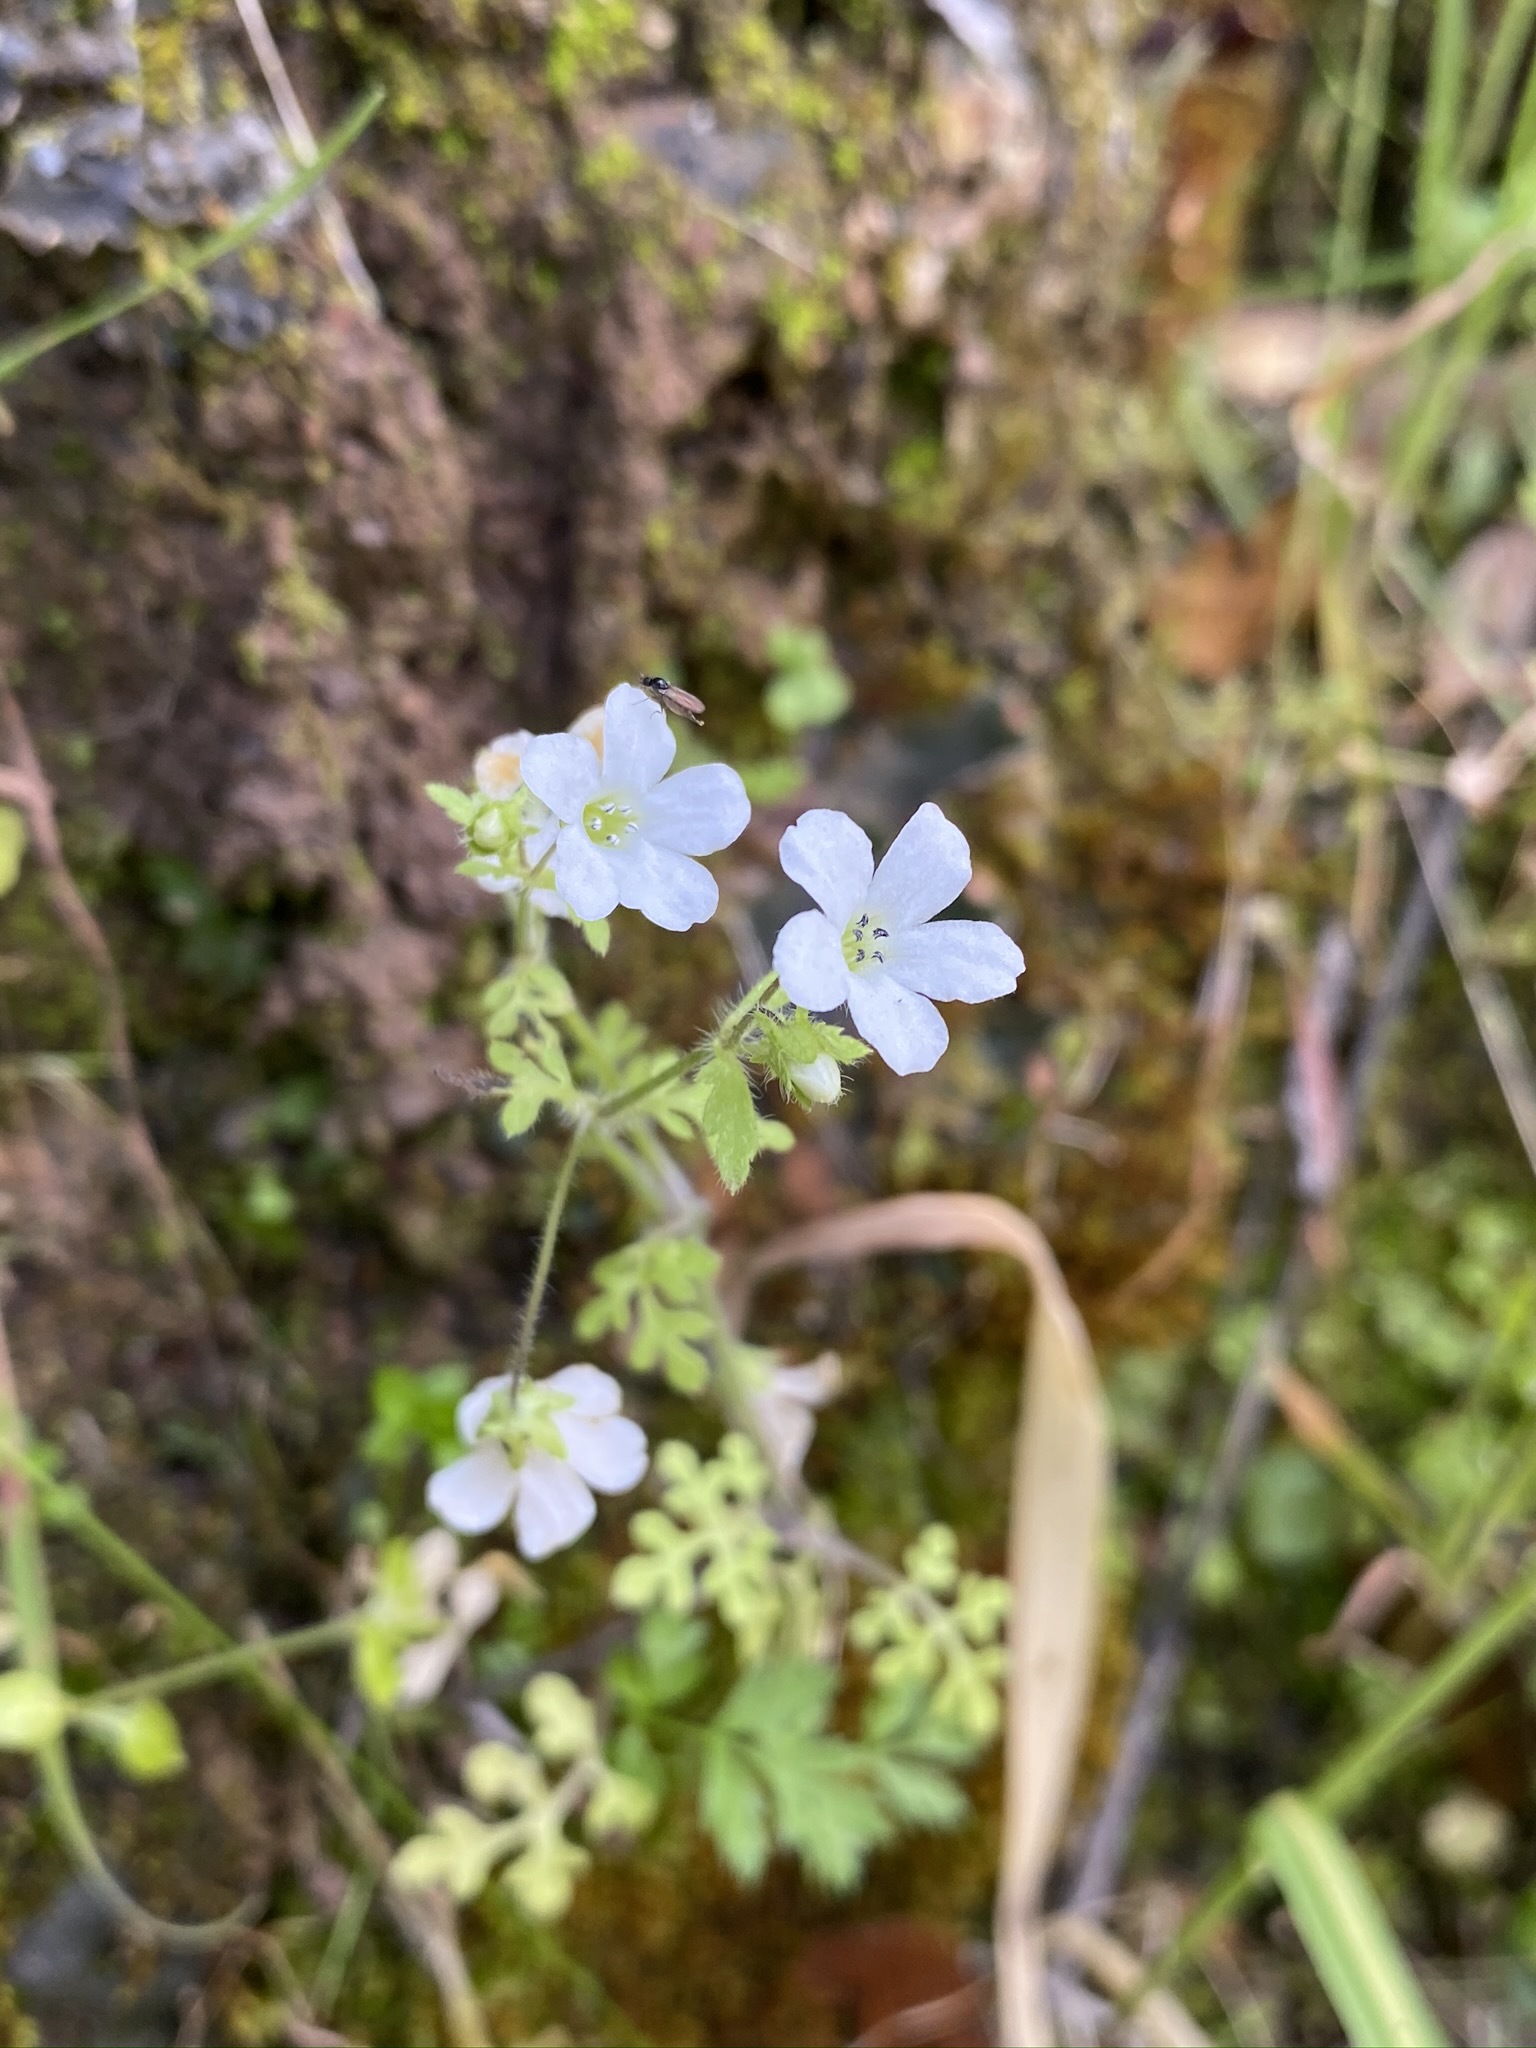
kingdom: Plantae
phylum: Tracheophyta
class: Magnoliopsida
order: Boraginales
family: Hydrophyllaceae
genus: Nemophila
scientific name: Nemophila heterophylla
